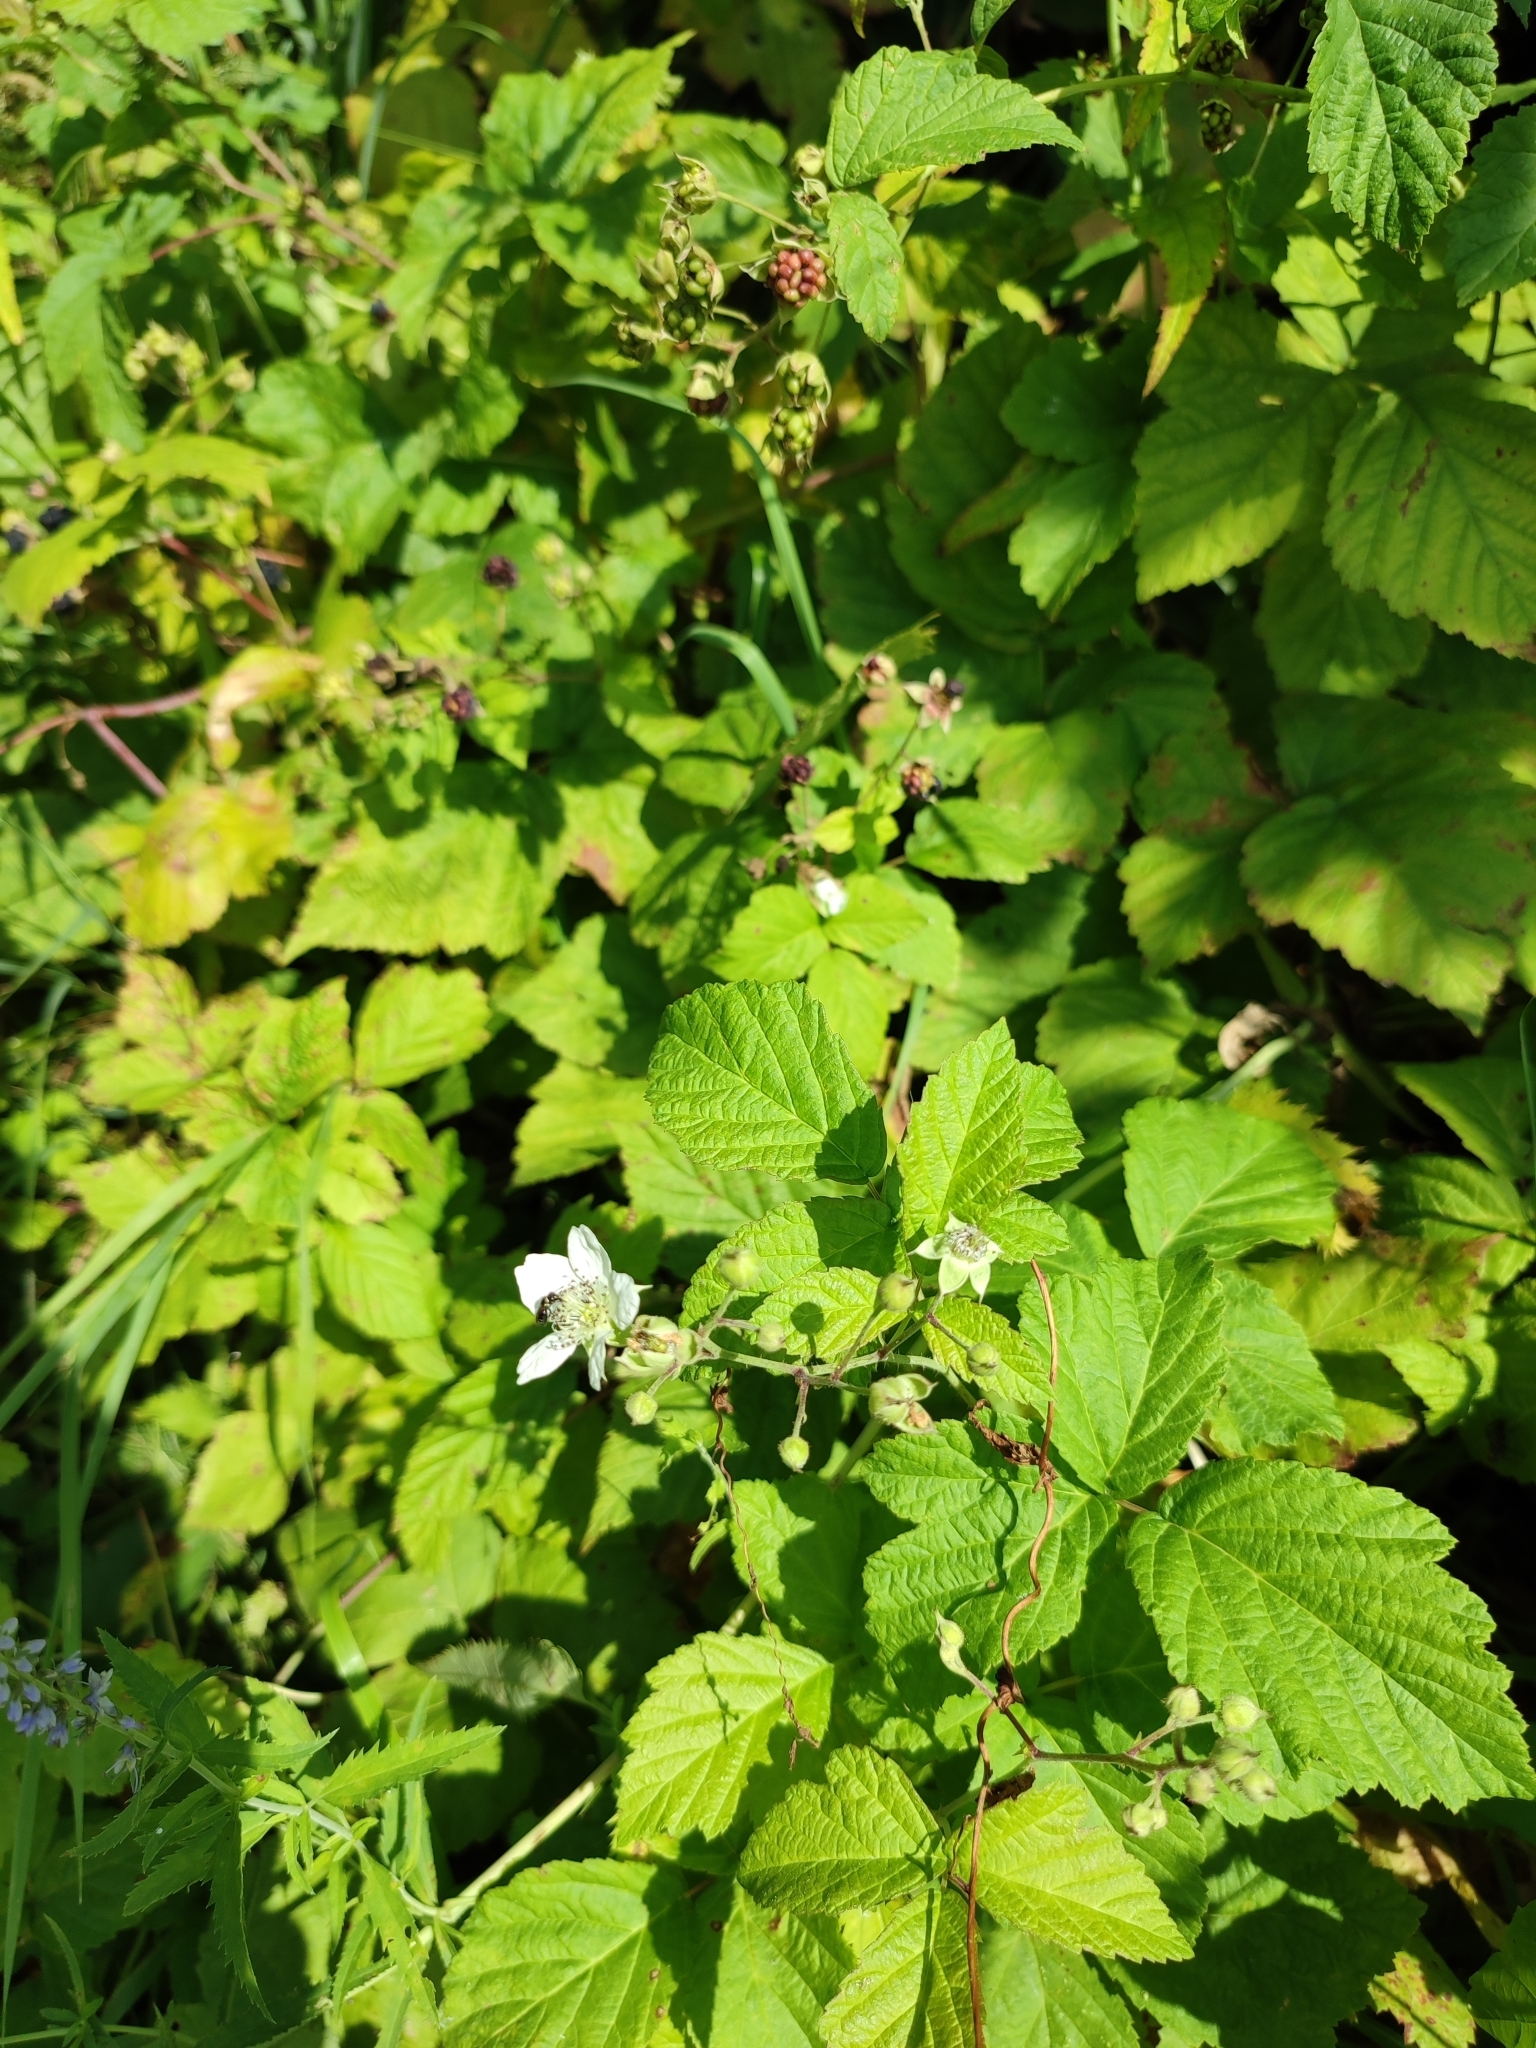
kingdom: Plantae
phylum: Tracheophyta
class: Magnoliopsida
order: Rosales
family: Rosaceae
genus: Rubus
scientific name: Rubus caesius
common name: Dewberry
